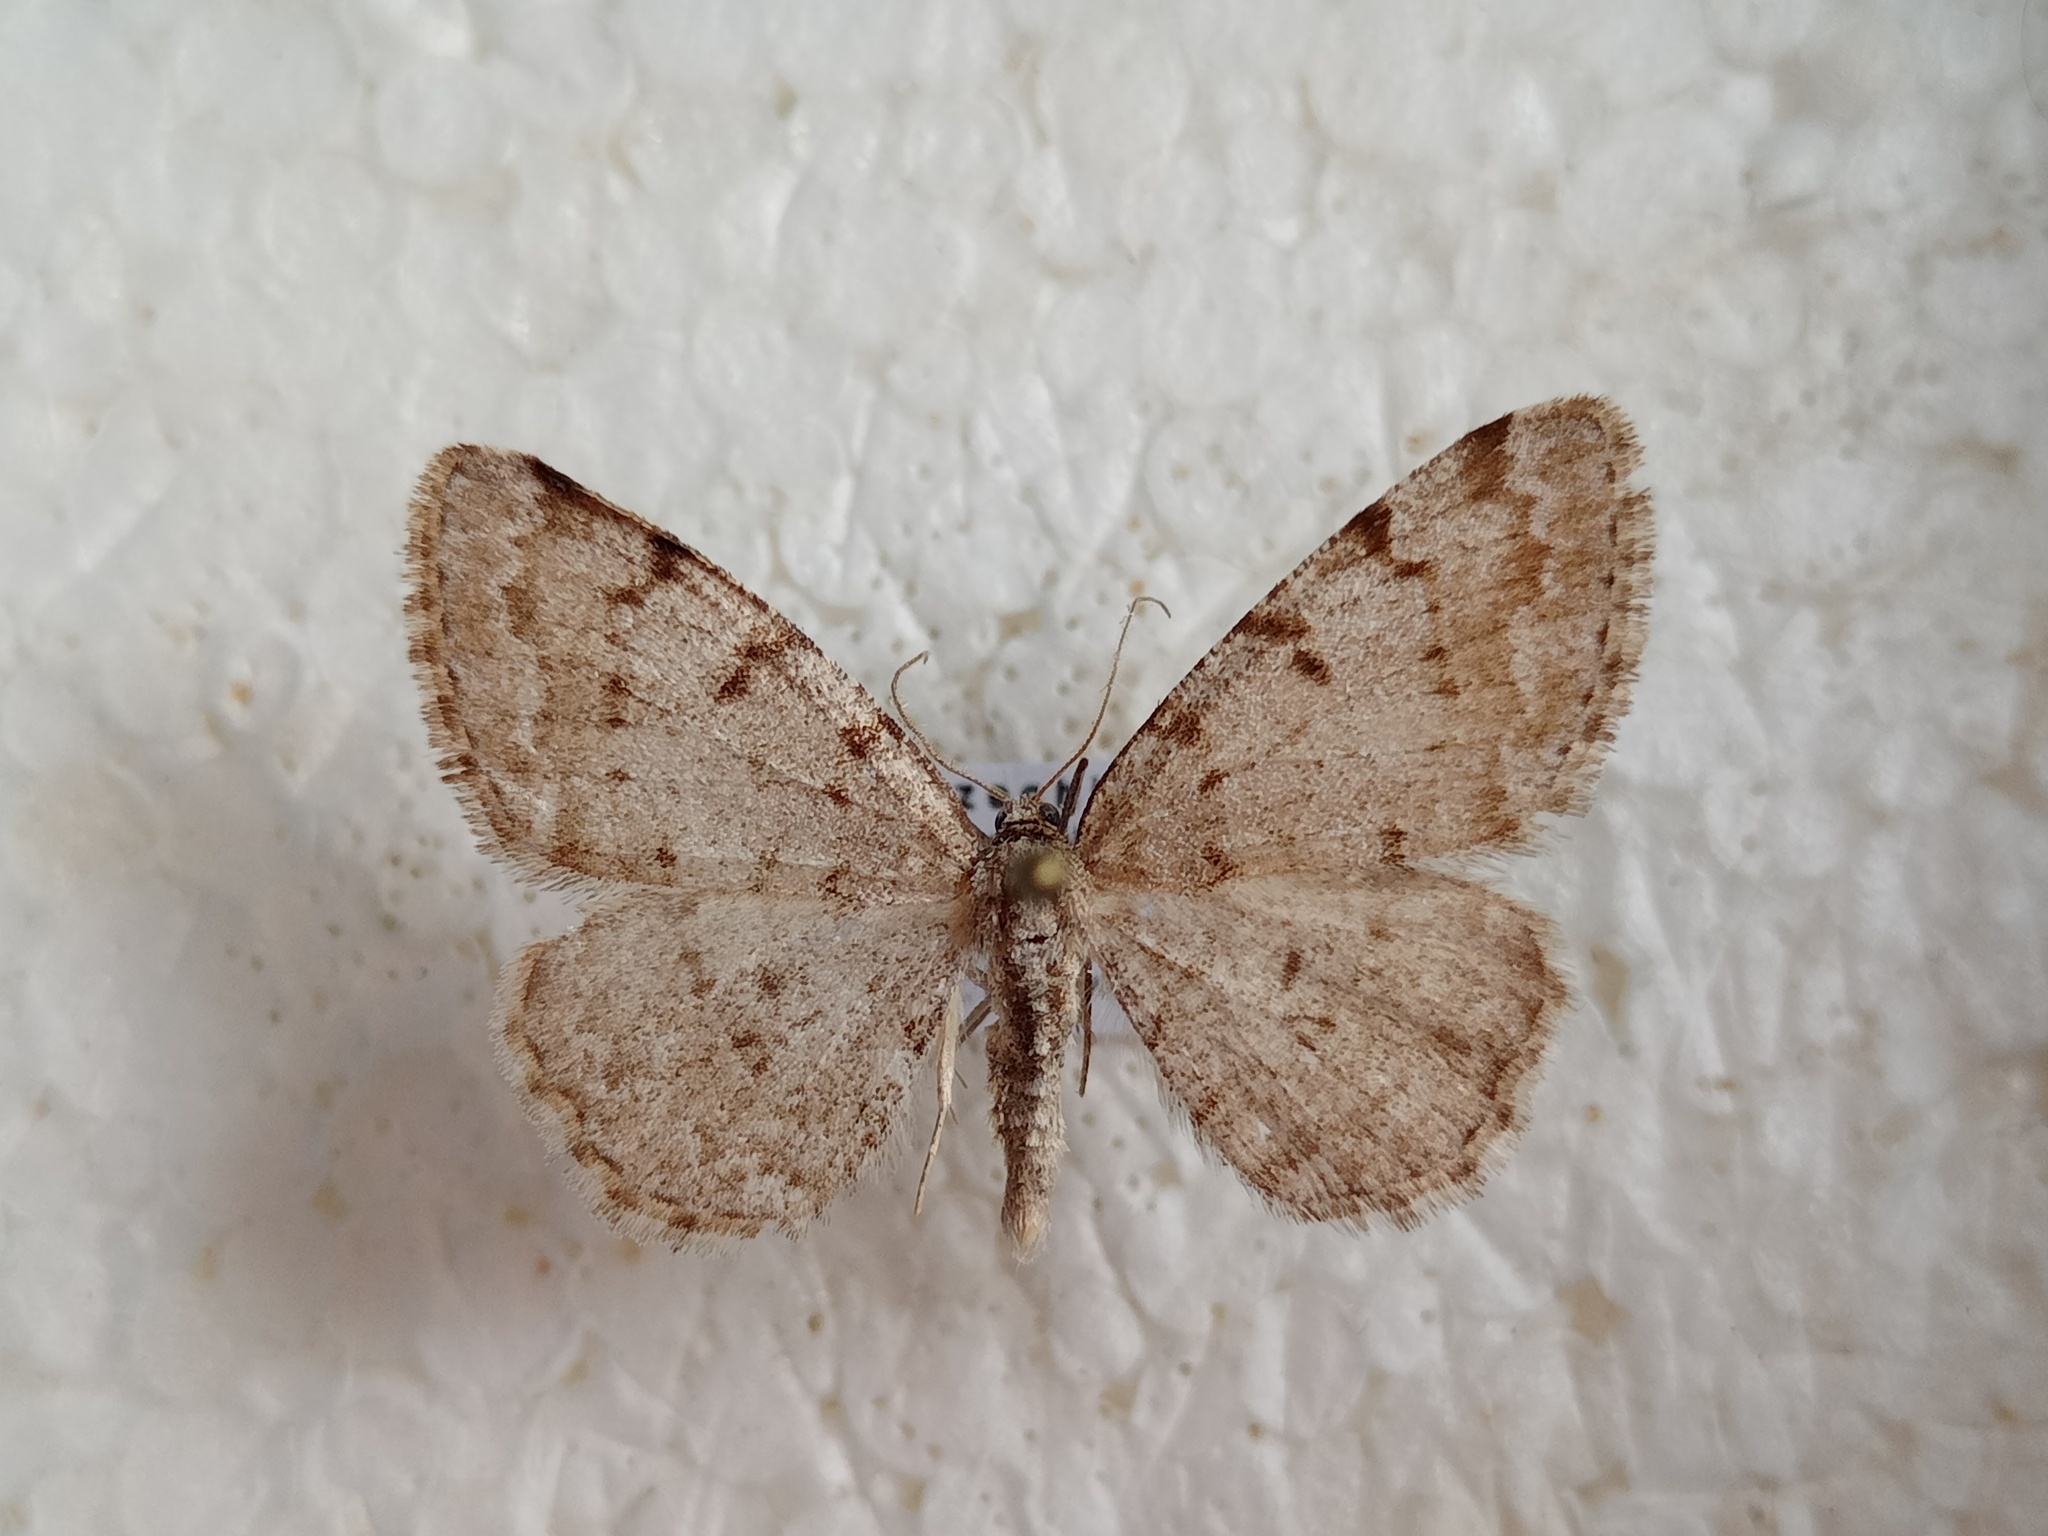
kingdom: Animalia
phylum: Arthropoda
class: Insecta
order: Lepidoptera
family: Geometridae
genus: Aethalura
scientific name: Aethalura punctulata
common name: Grey birch
